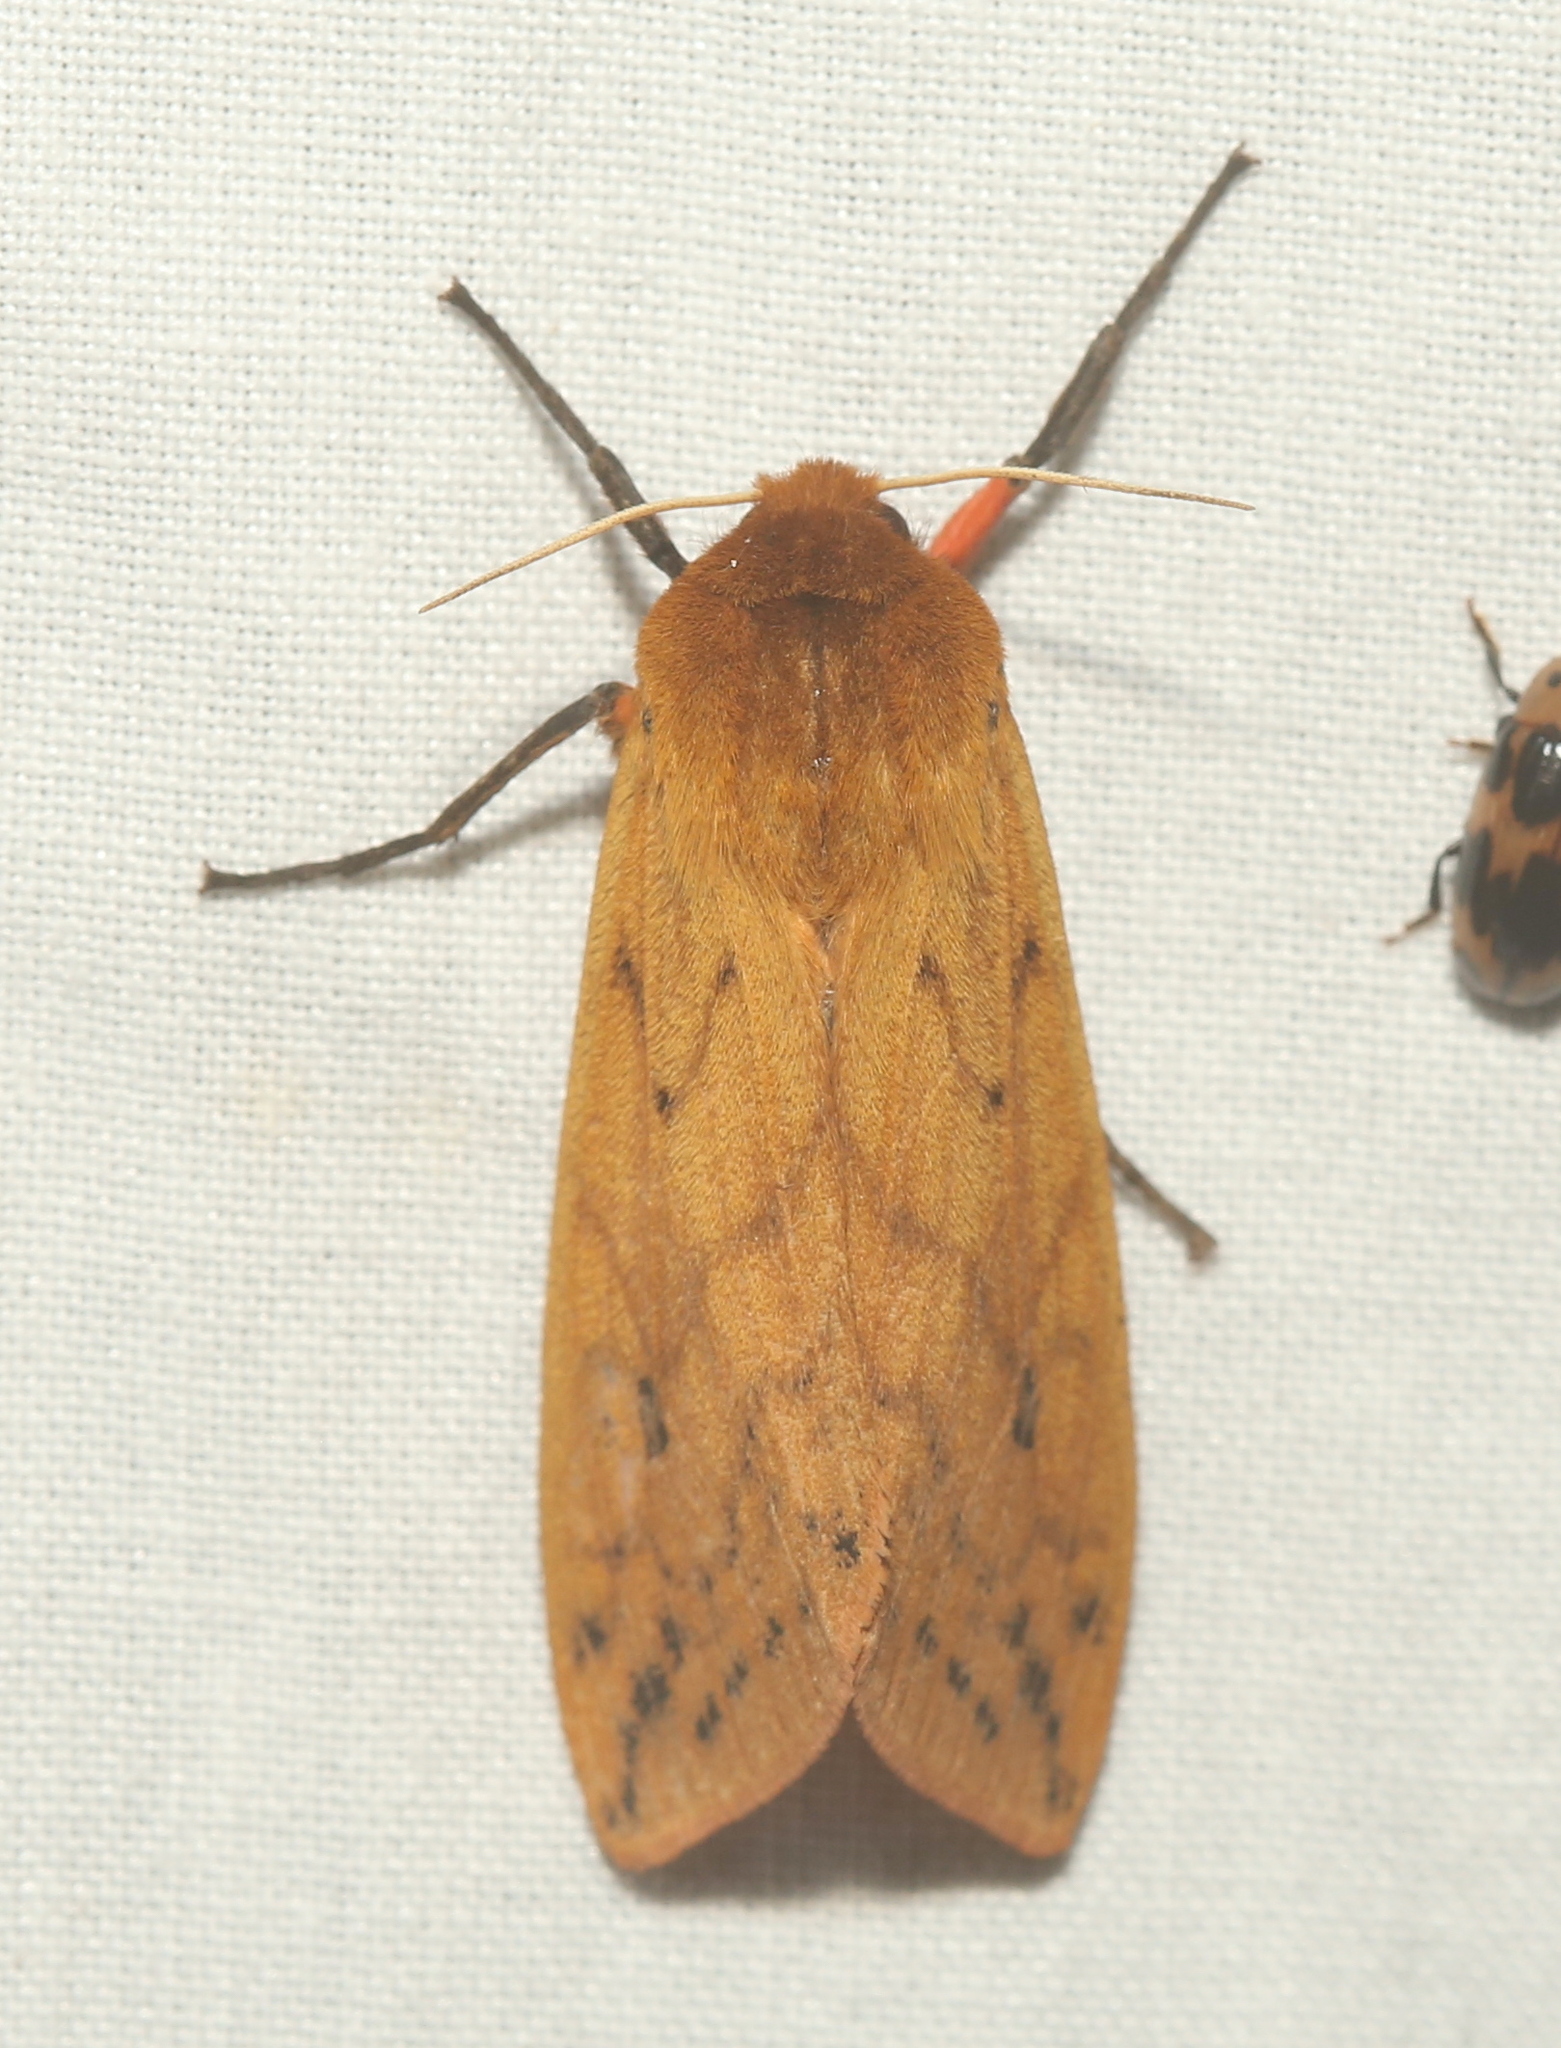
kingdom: Animalia
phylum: Arthropoda
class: Insecta
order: Lepidoptera
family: Erebidae
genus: Pyrrharctia
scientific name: Pyrrharctia isabella
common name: Isabella tiger moth
